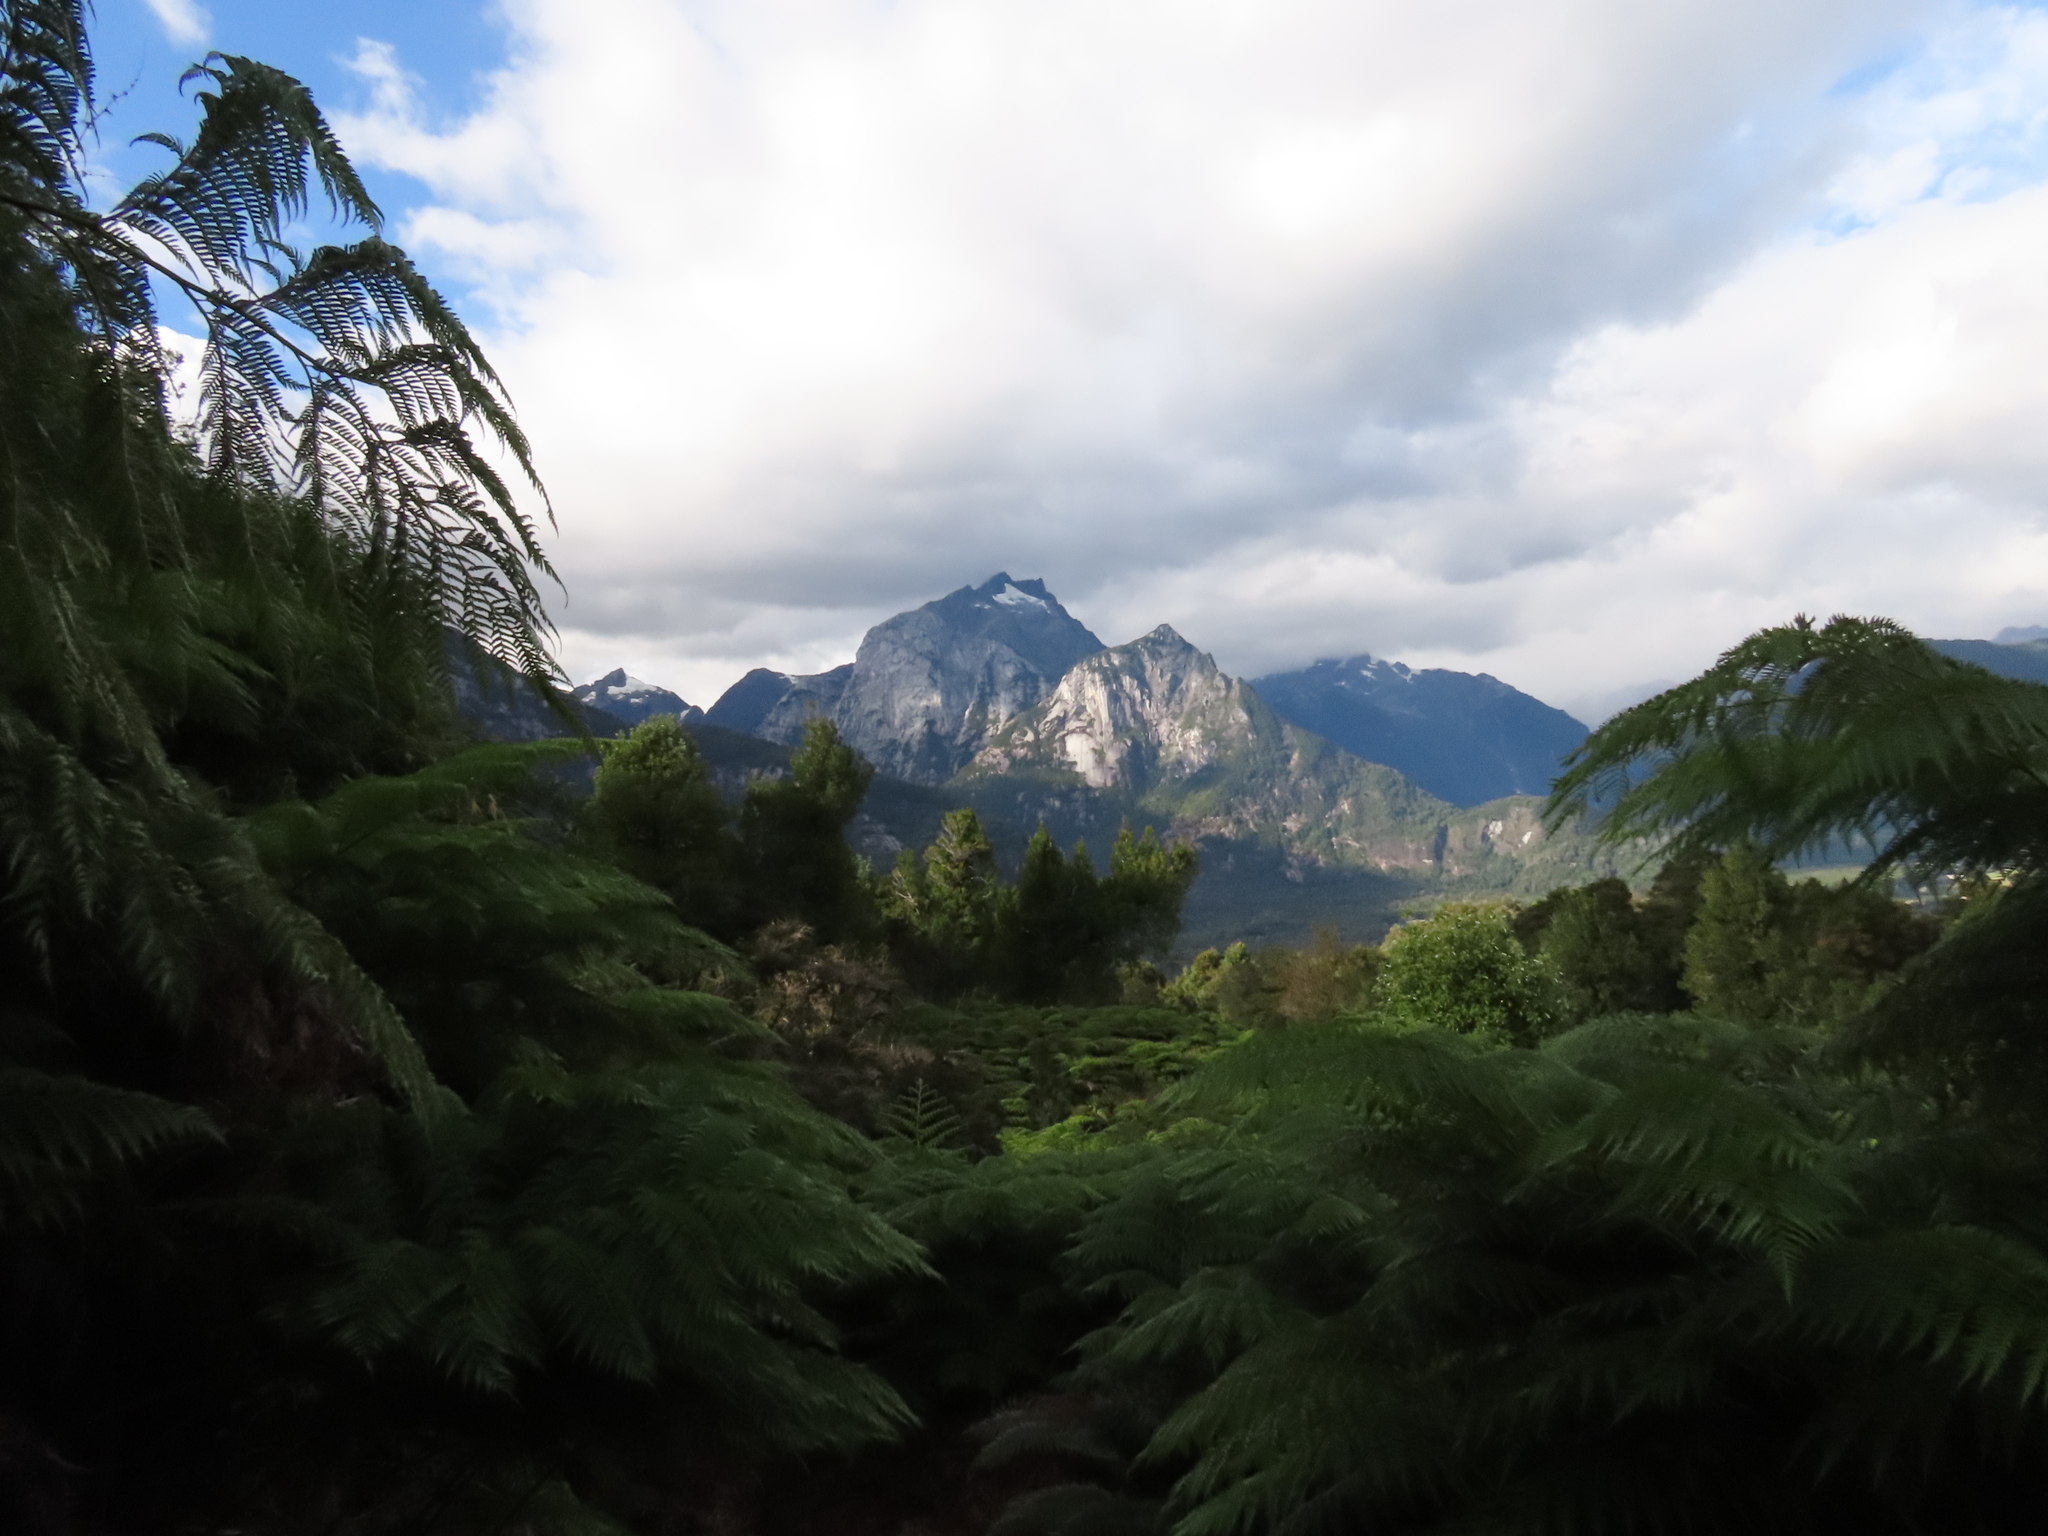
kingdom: Plantae
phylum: Tracheophyta
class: Polypodiopsida
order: Cyatheales
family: Dicksoniaceae
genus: Lophosoria
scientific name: Lophosoria quadripinnata
